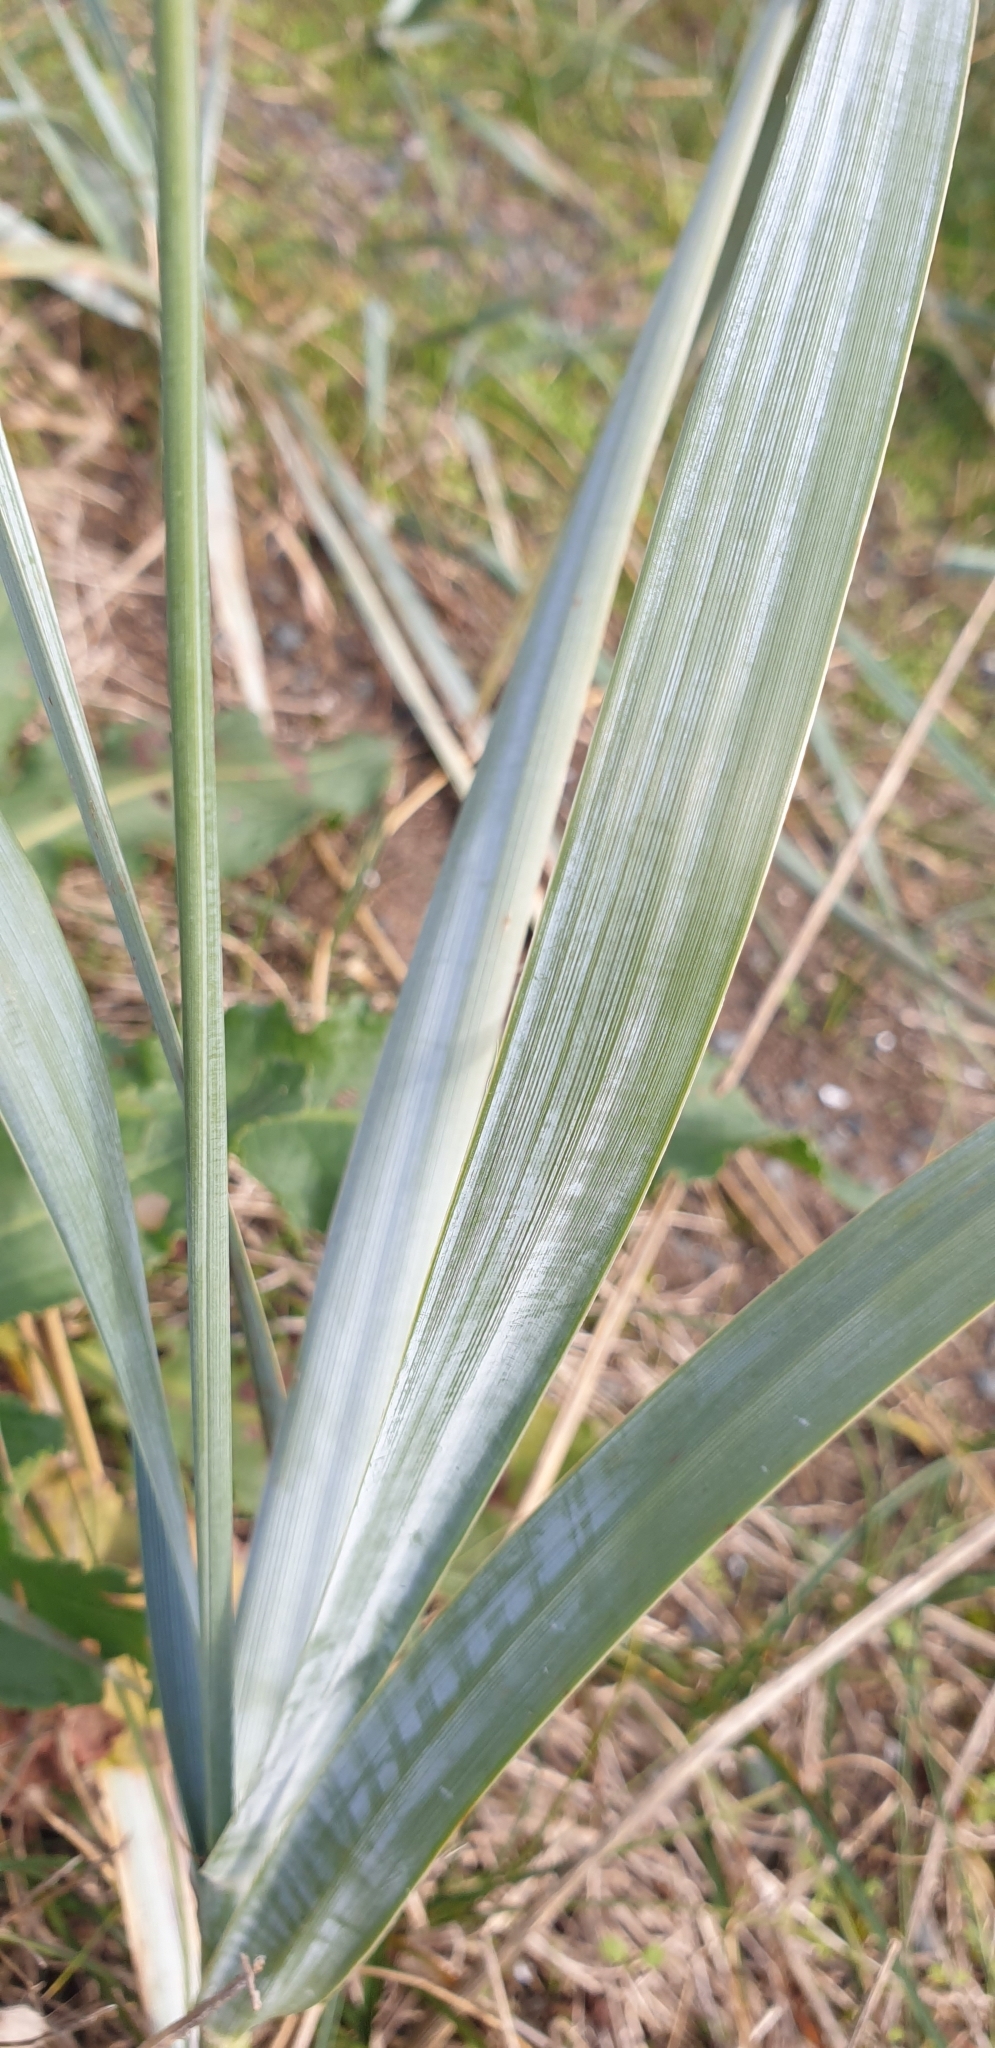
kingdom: Plantae
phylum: Tracheophyta
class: Liliopsida
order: Poales
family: Poaceae
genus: Leymus
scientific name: Leymus arenarius
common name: Lyme-grass
